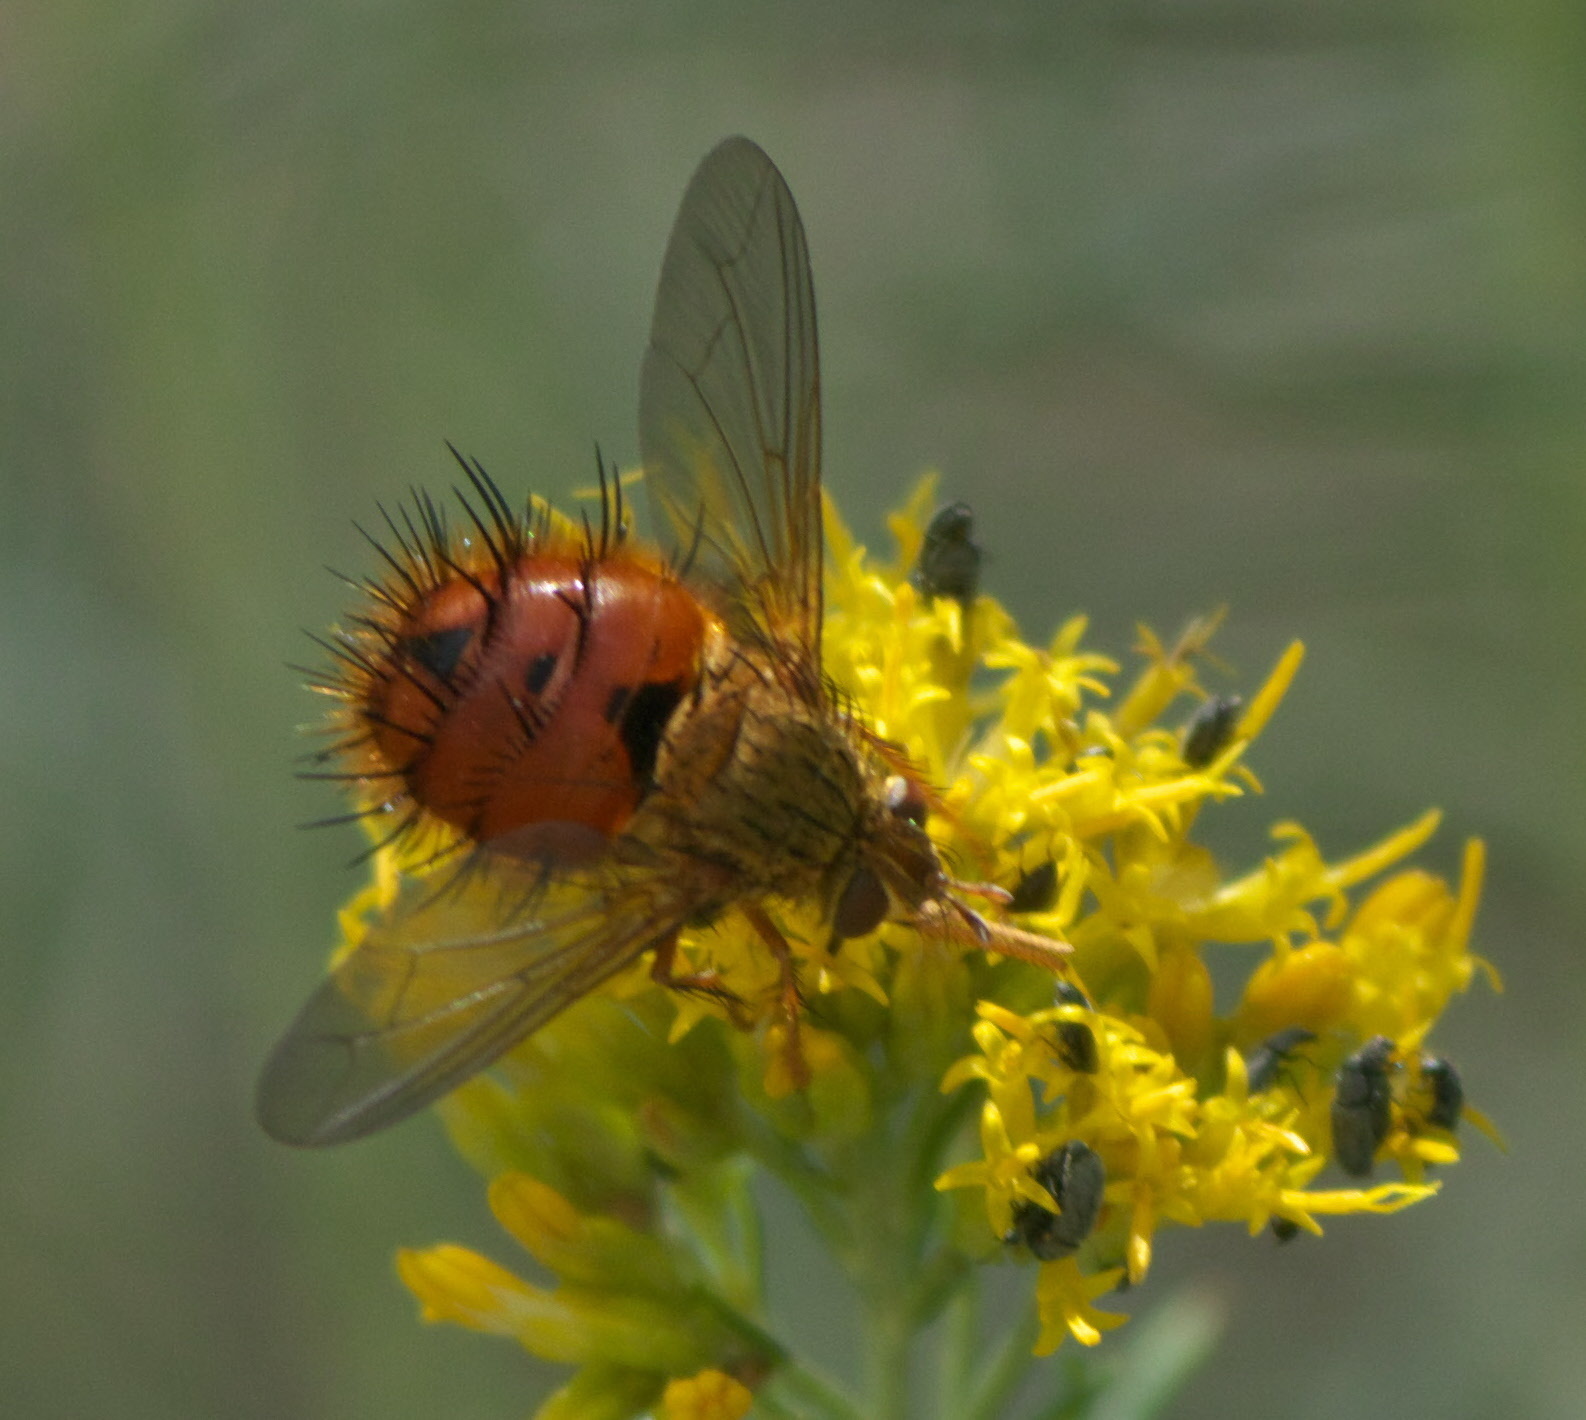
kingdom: Animalia
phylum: Arthropoda
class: Insecta
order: Diptera
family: Tachinidae
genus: Adejeania
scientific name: Adejeania vexatrix
